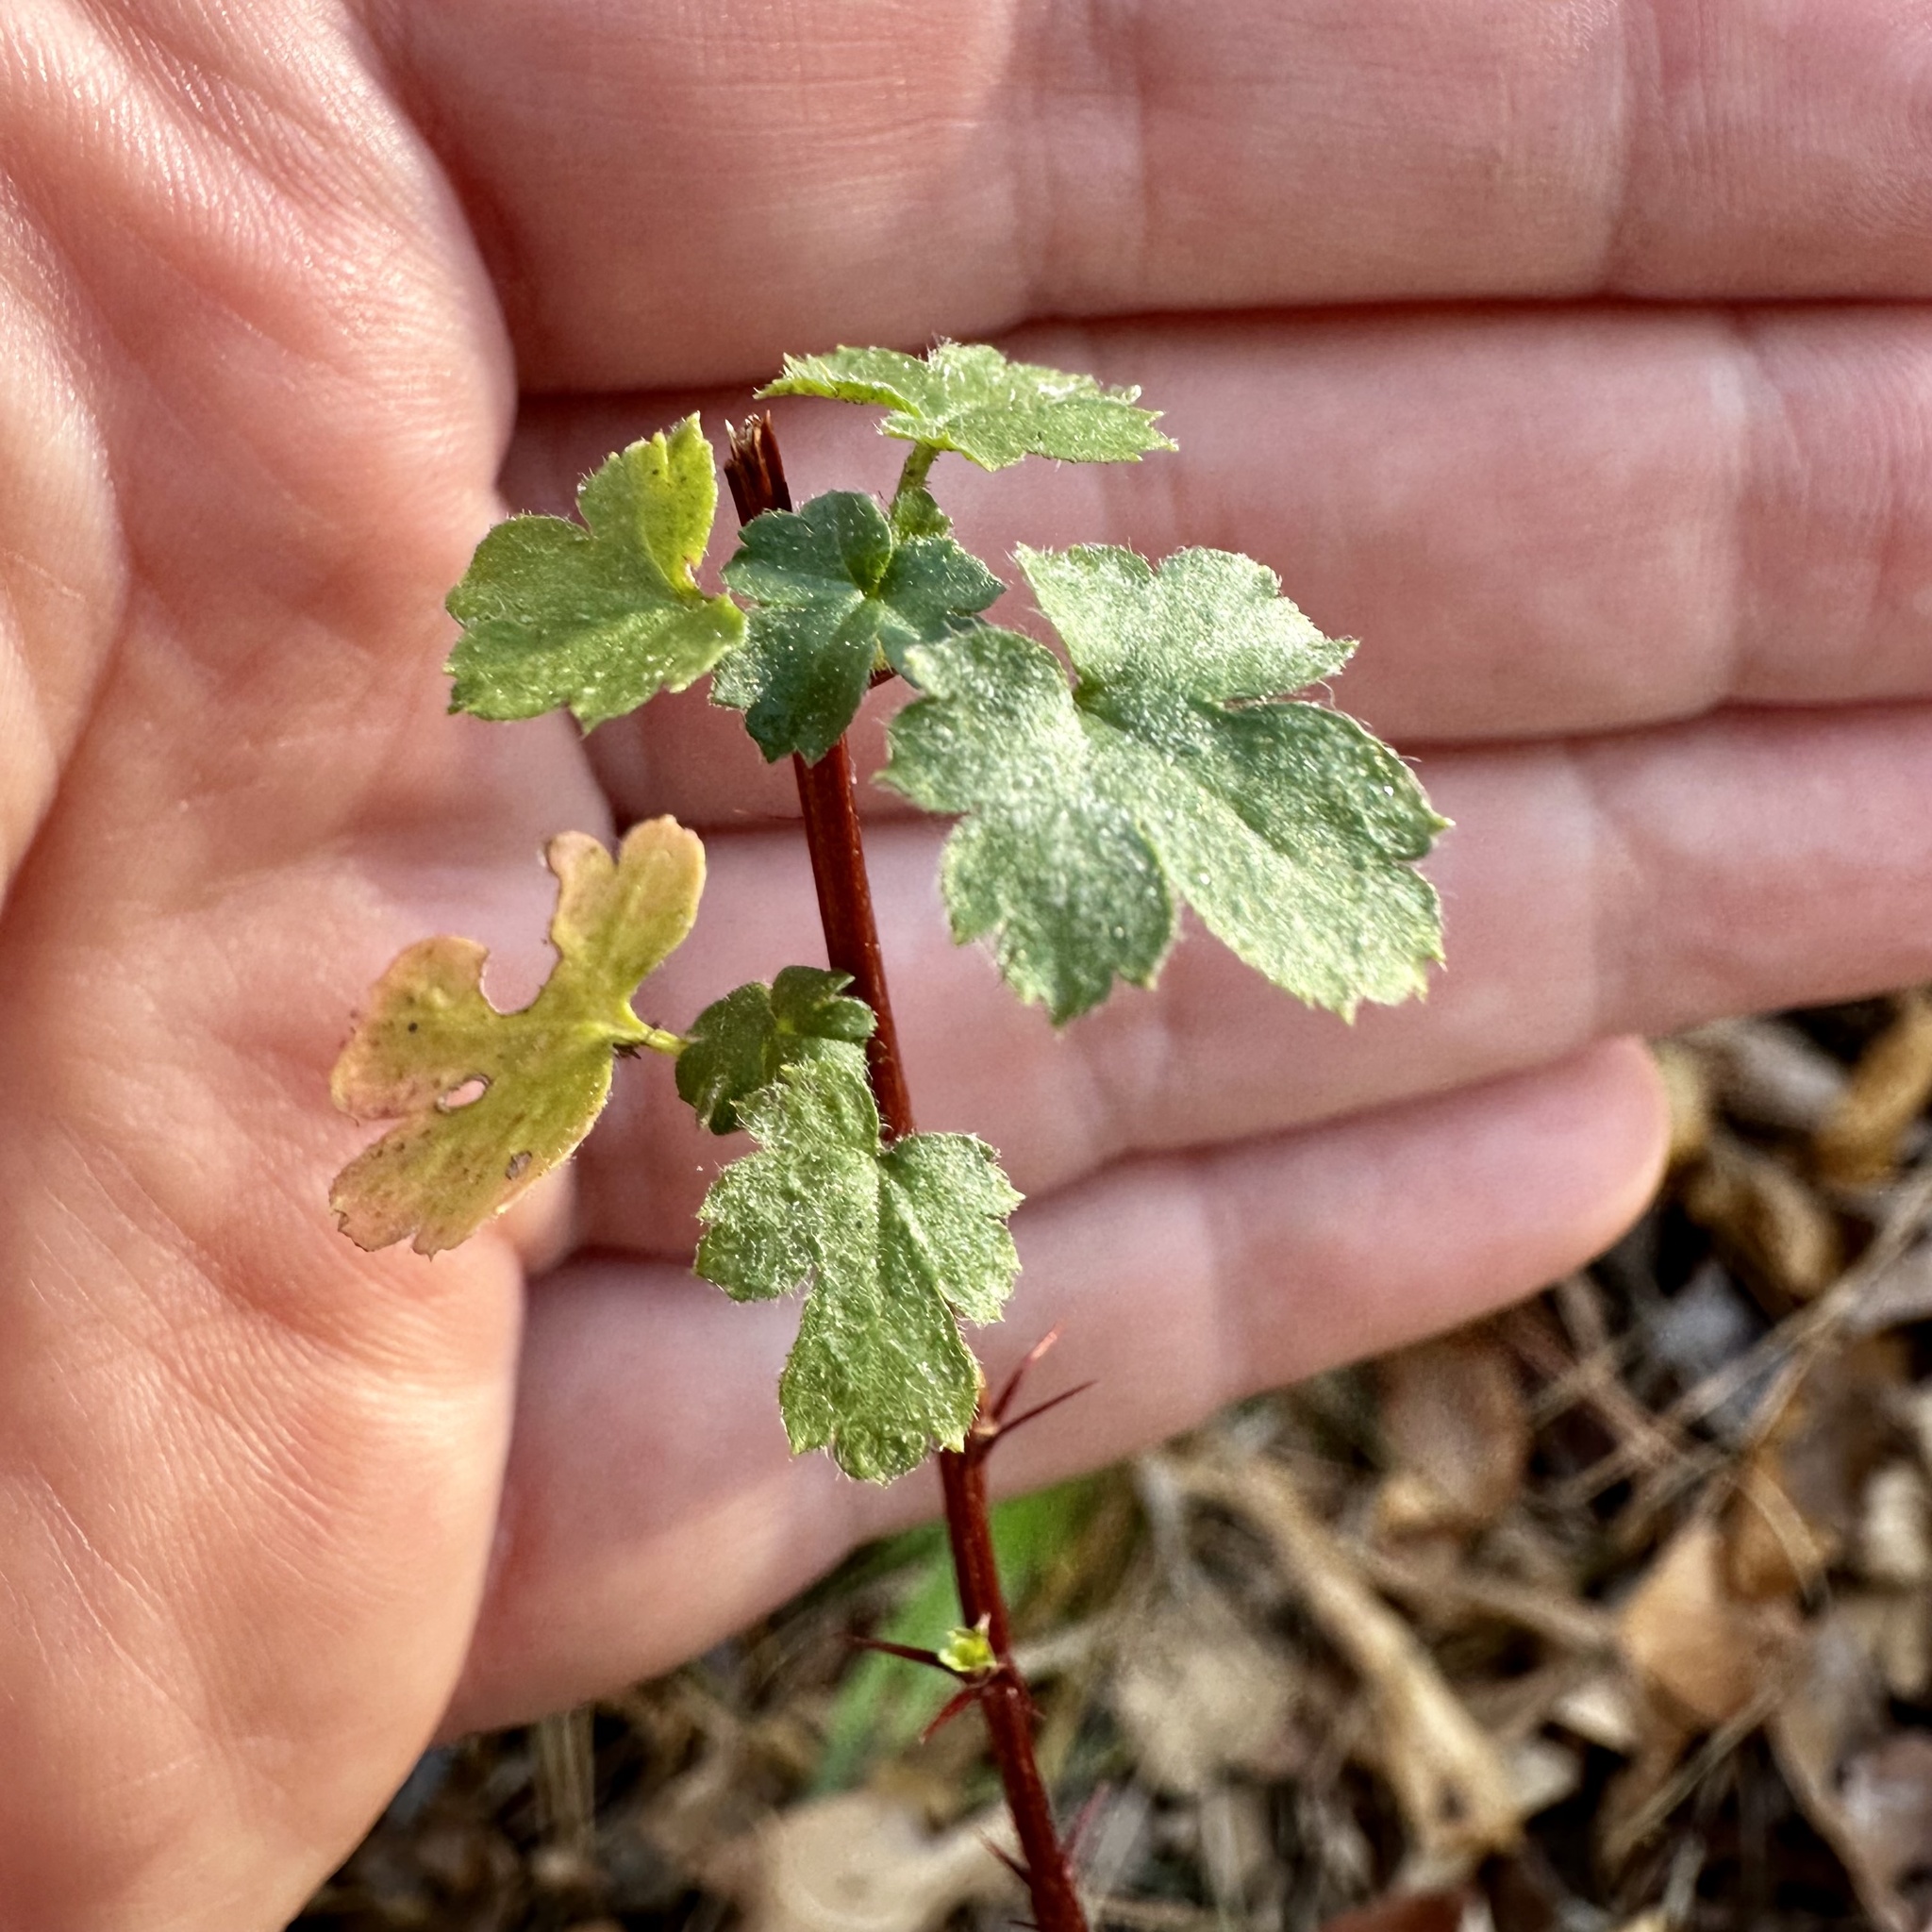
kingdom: Plantae
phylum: Tracheophyta
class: Magnoliopsida
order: Saxifragales
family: Grossulariaceae
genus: Ribes
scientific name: Ribes curvatum
